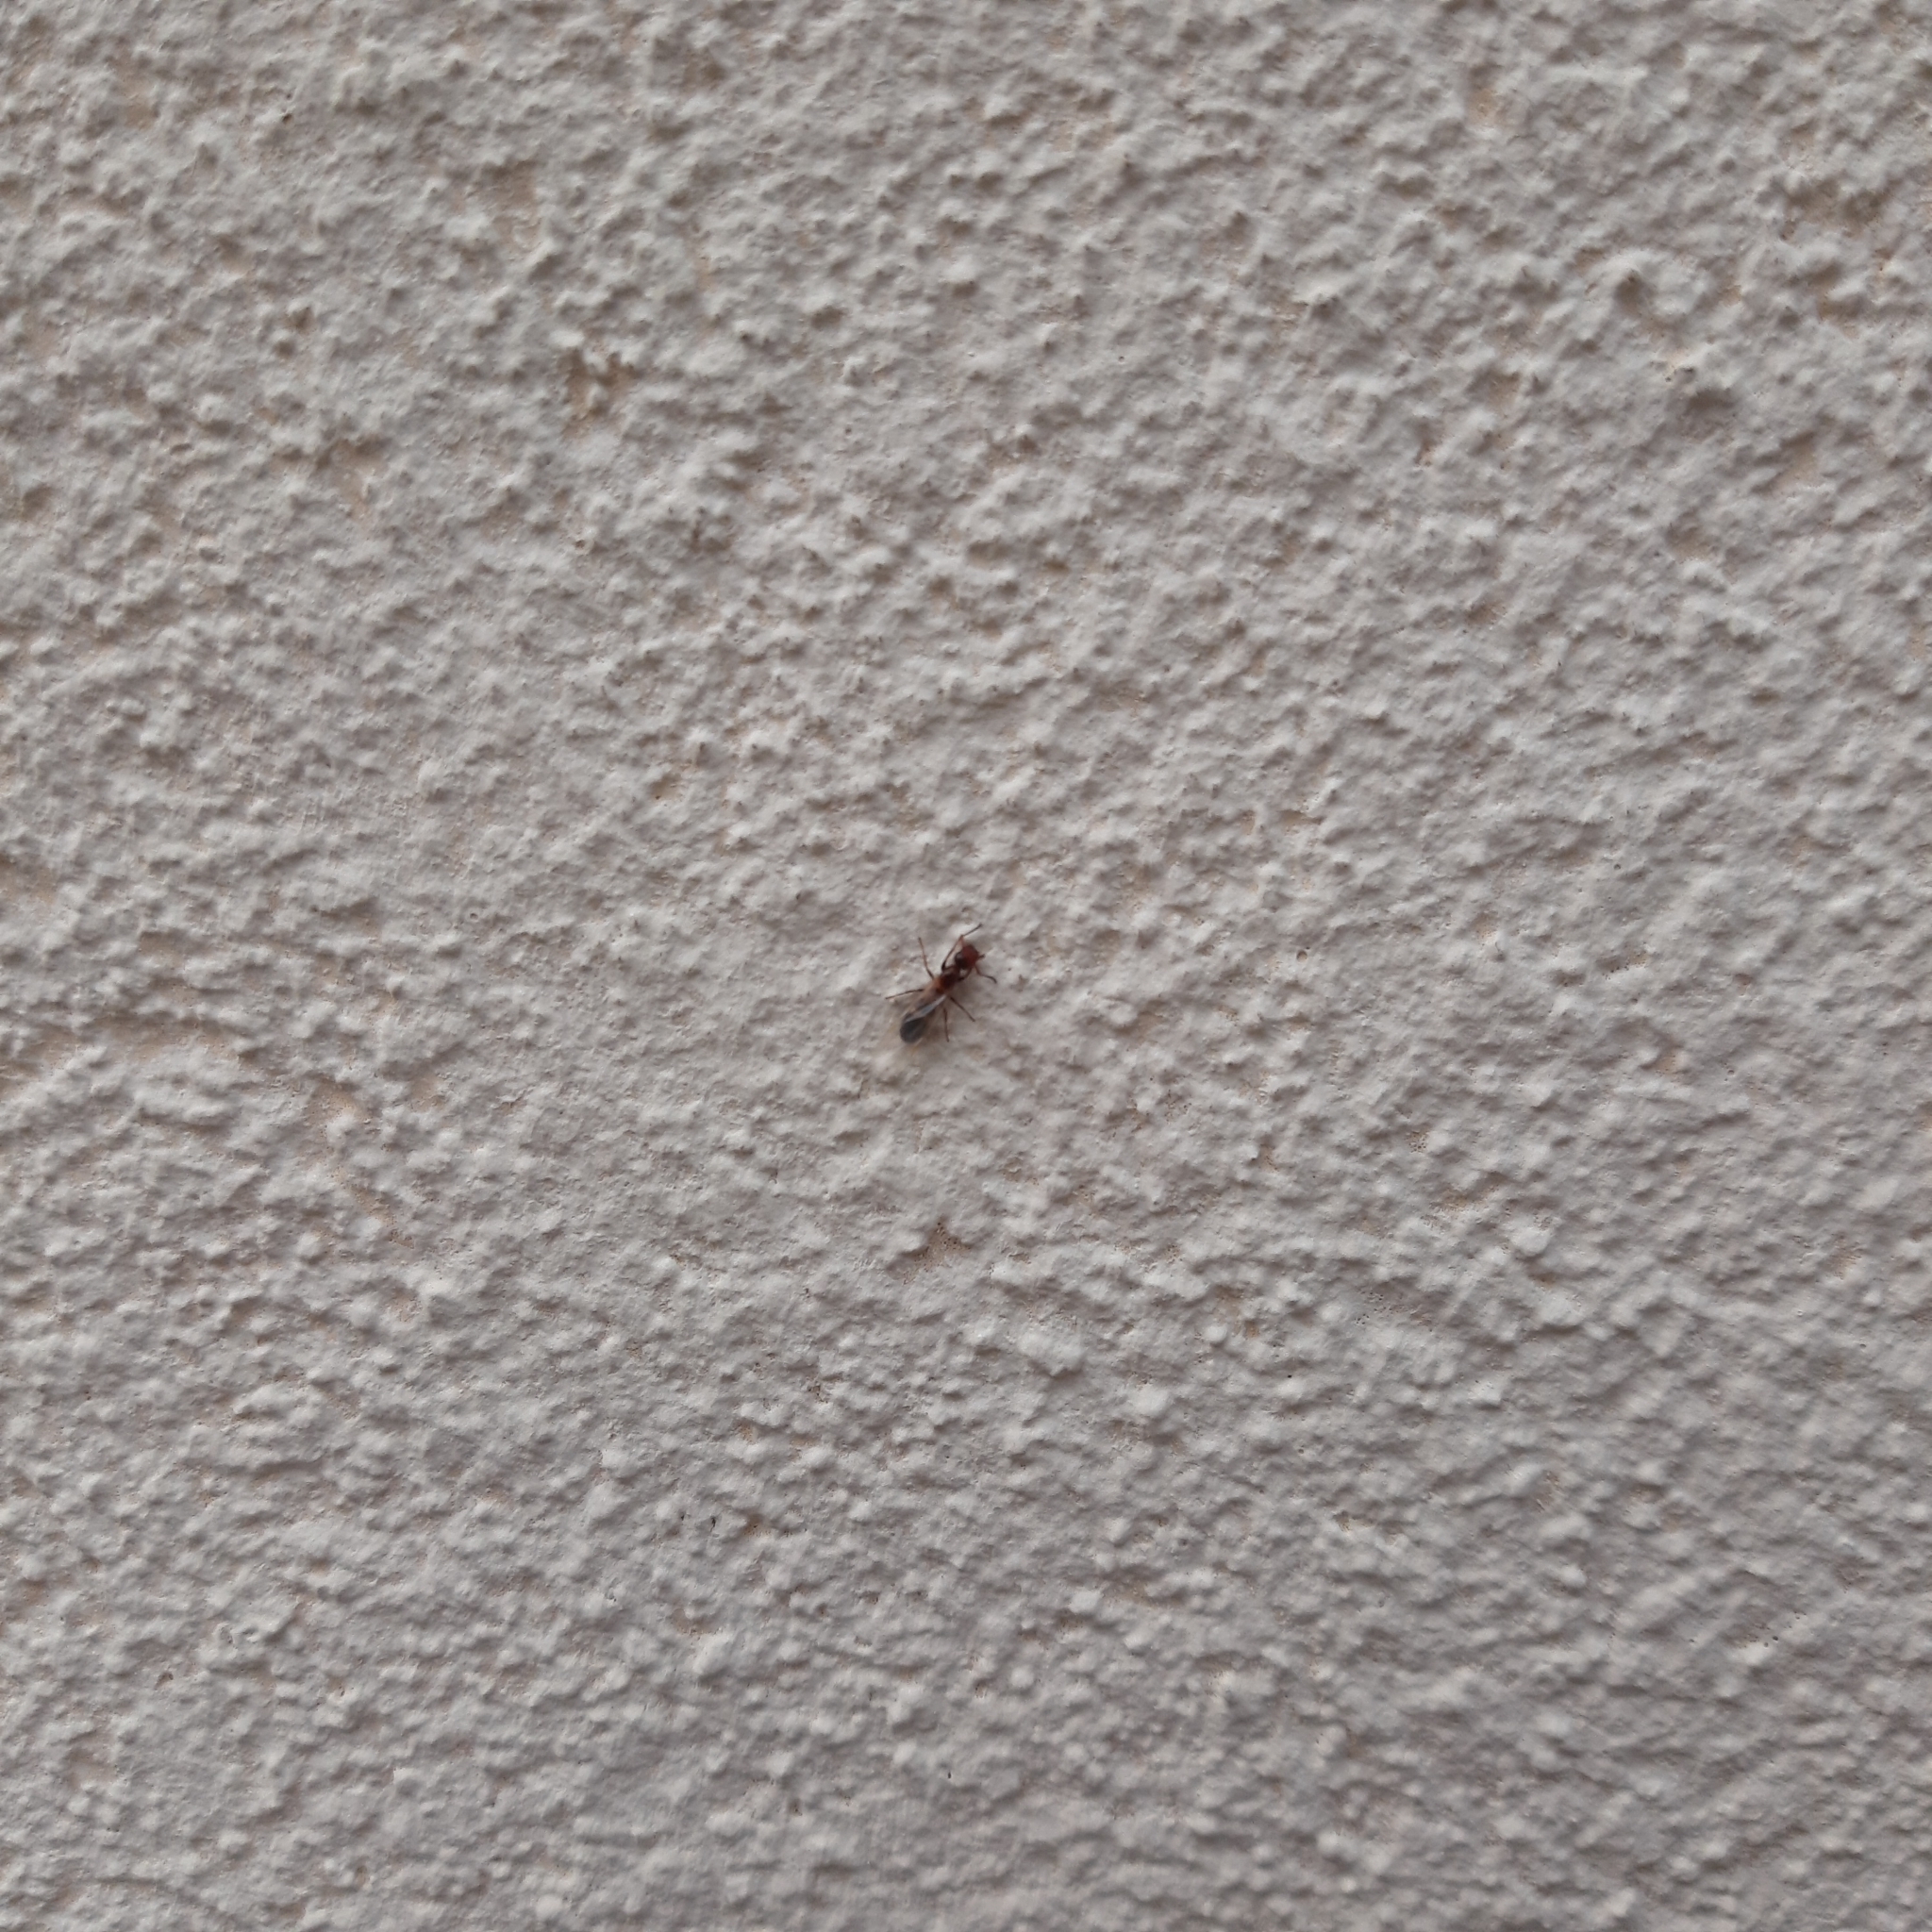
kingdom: Animalia
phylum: Arthropoda
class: Insecta
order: Hymenoptera
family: Formicidae
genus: Camponotus
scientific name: Camponotus truncatus
